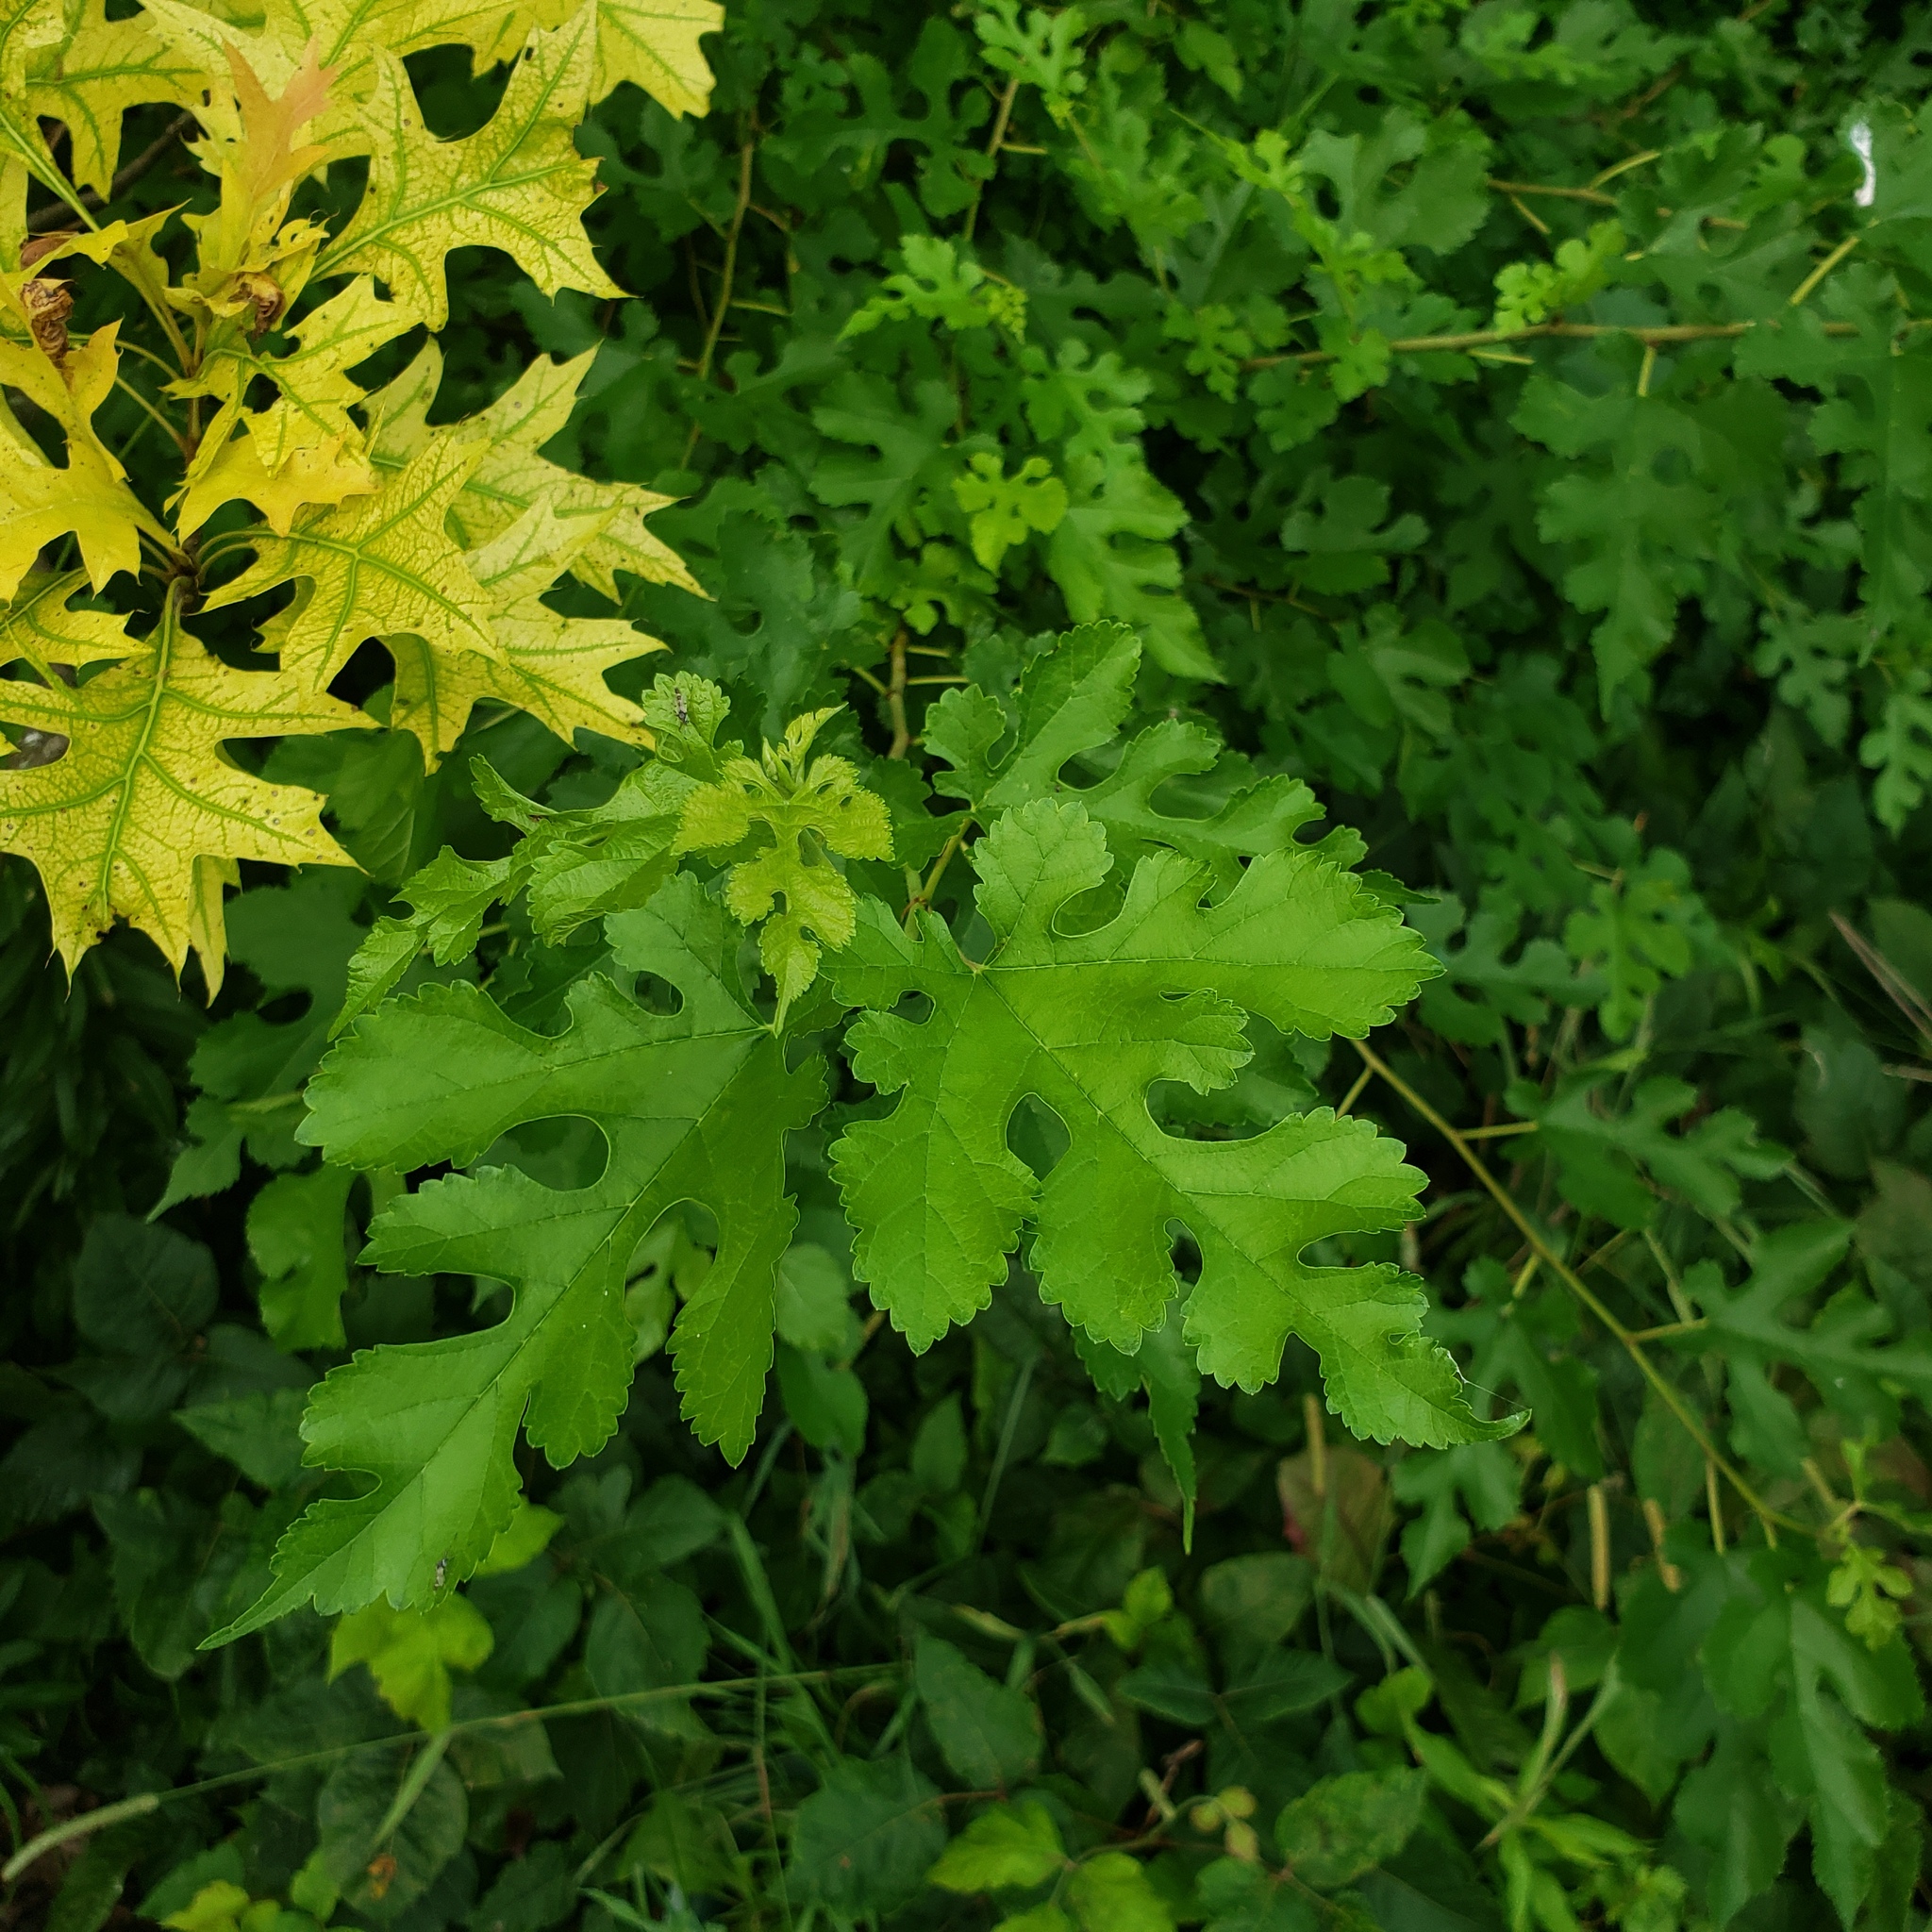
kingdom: Plantae
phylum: Tracheophyta
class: Magnoliopsida
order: Rosales
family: Moraceae
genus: Morus
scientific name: Morus alba
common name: White mulberry
